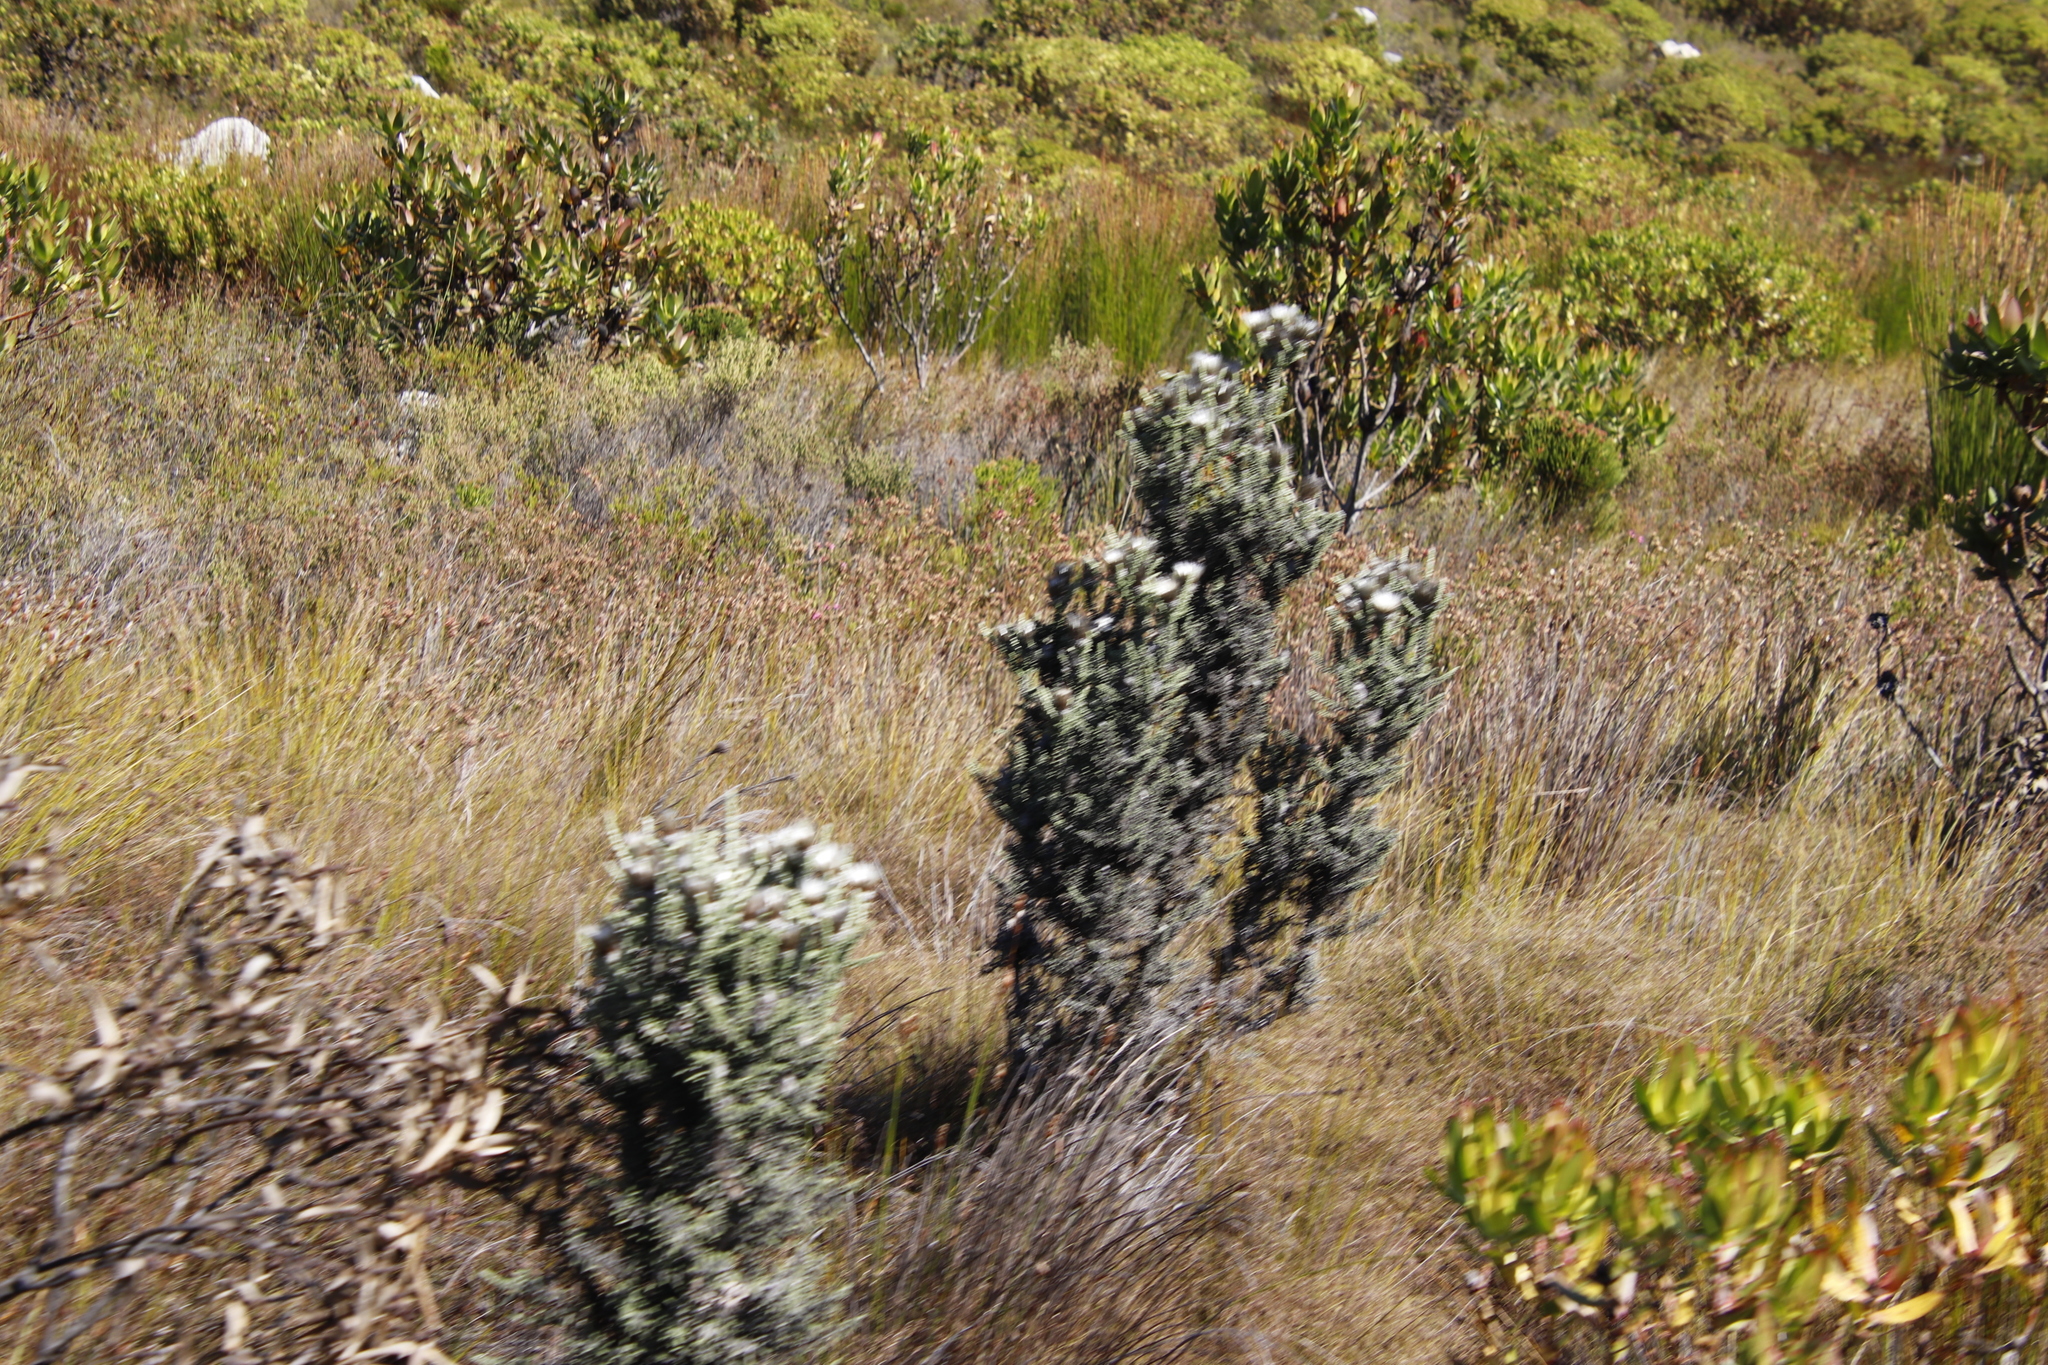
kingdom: Plantae
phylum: Tracheophyta
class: Magnoliopsida
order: Asterales
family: Asteraceae
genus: Phaenocoma
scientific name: Phaenocoma prolifera
